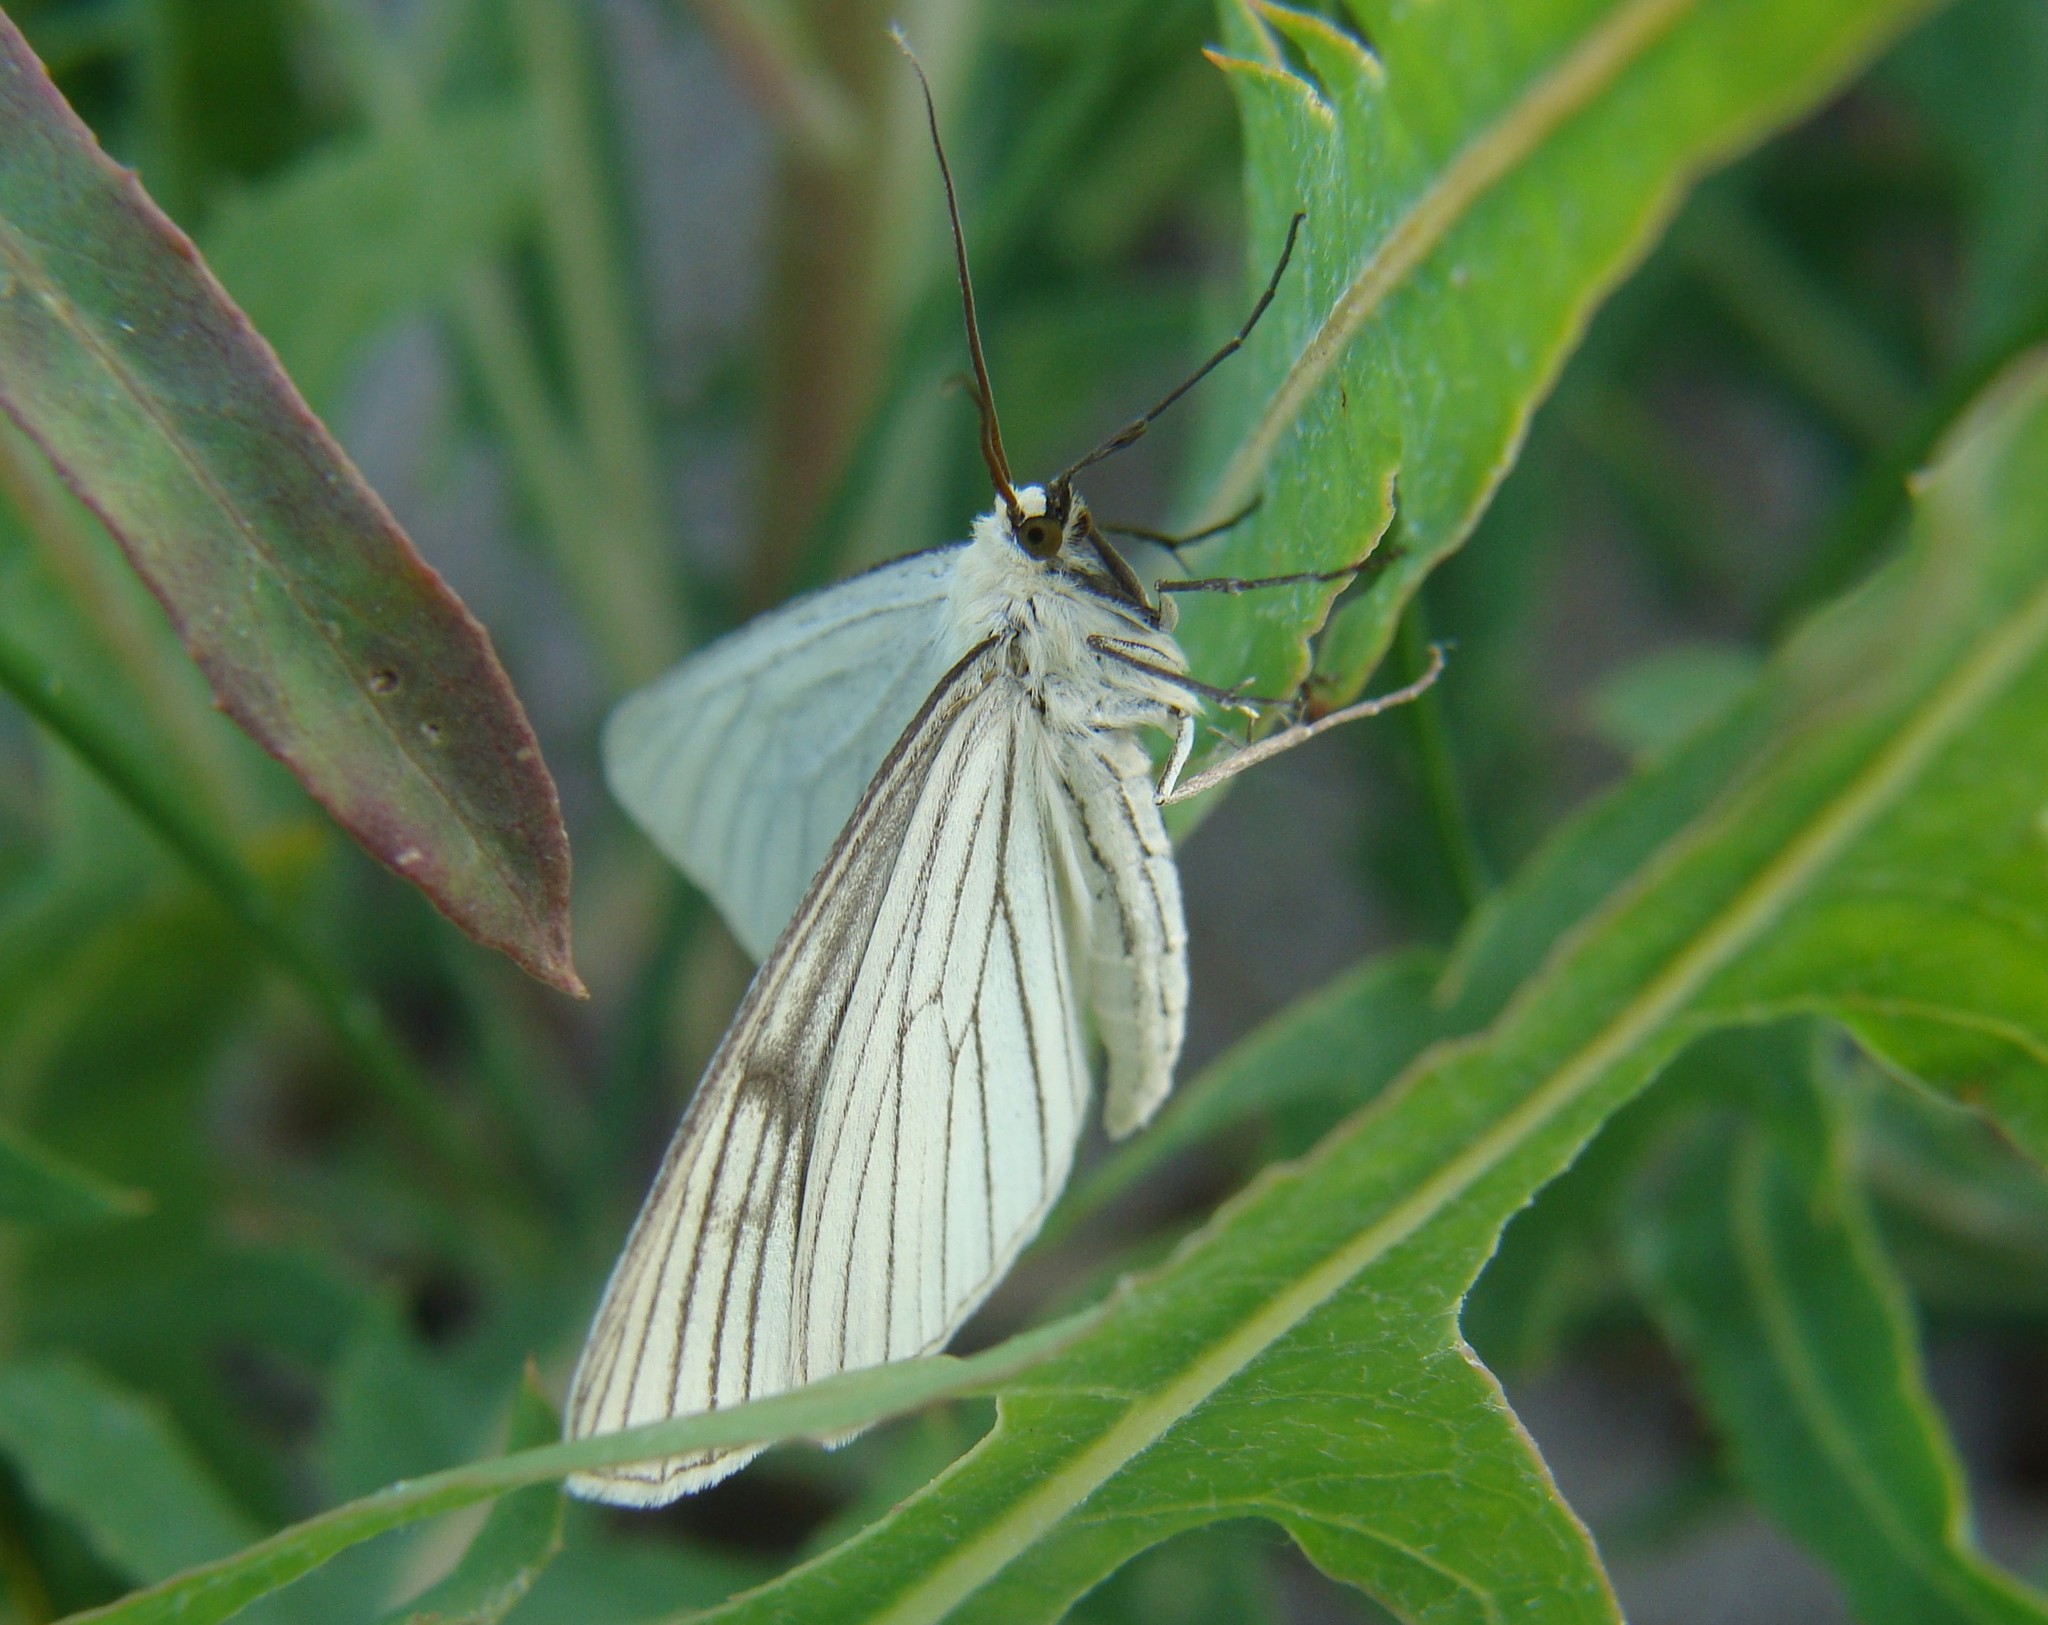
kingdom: Animalia
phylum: Arthropoda
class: Insecta
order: Lepidoptera
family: Geometridae
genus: Siona
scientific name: Siona lineata
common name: Black-veined moth
